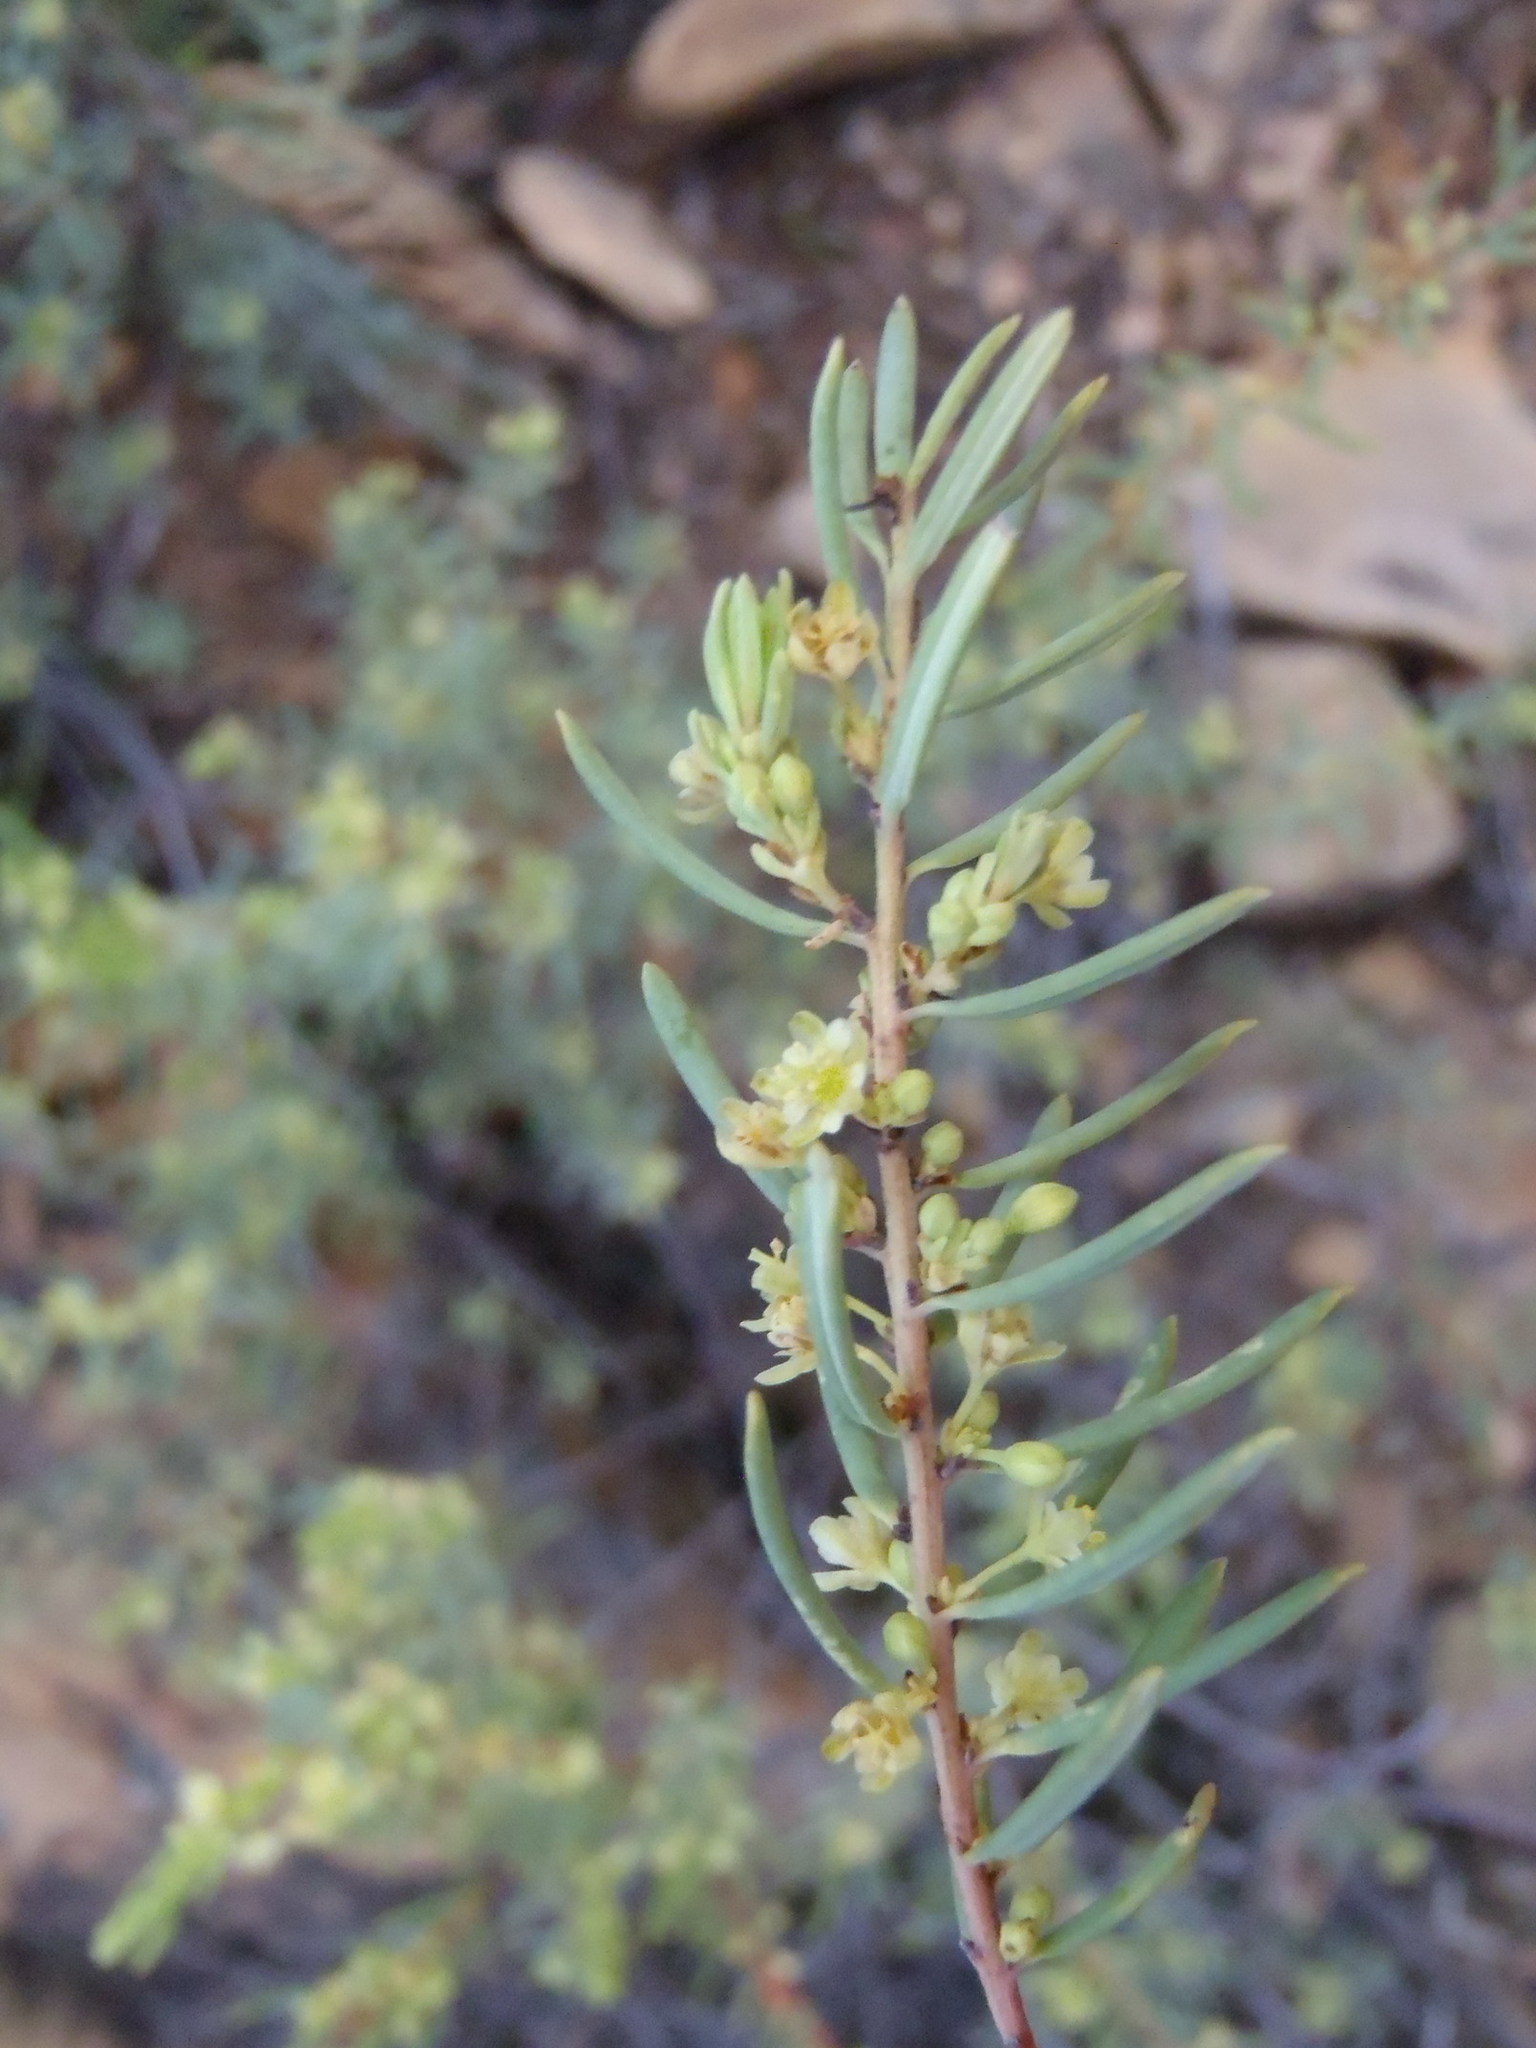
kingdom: Plantae
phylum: Tracheophyta
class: Magnoliopsida
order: Malpighiales
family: Peraceae
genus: Clutia
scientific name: Clutia polifolia
